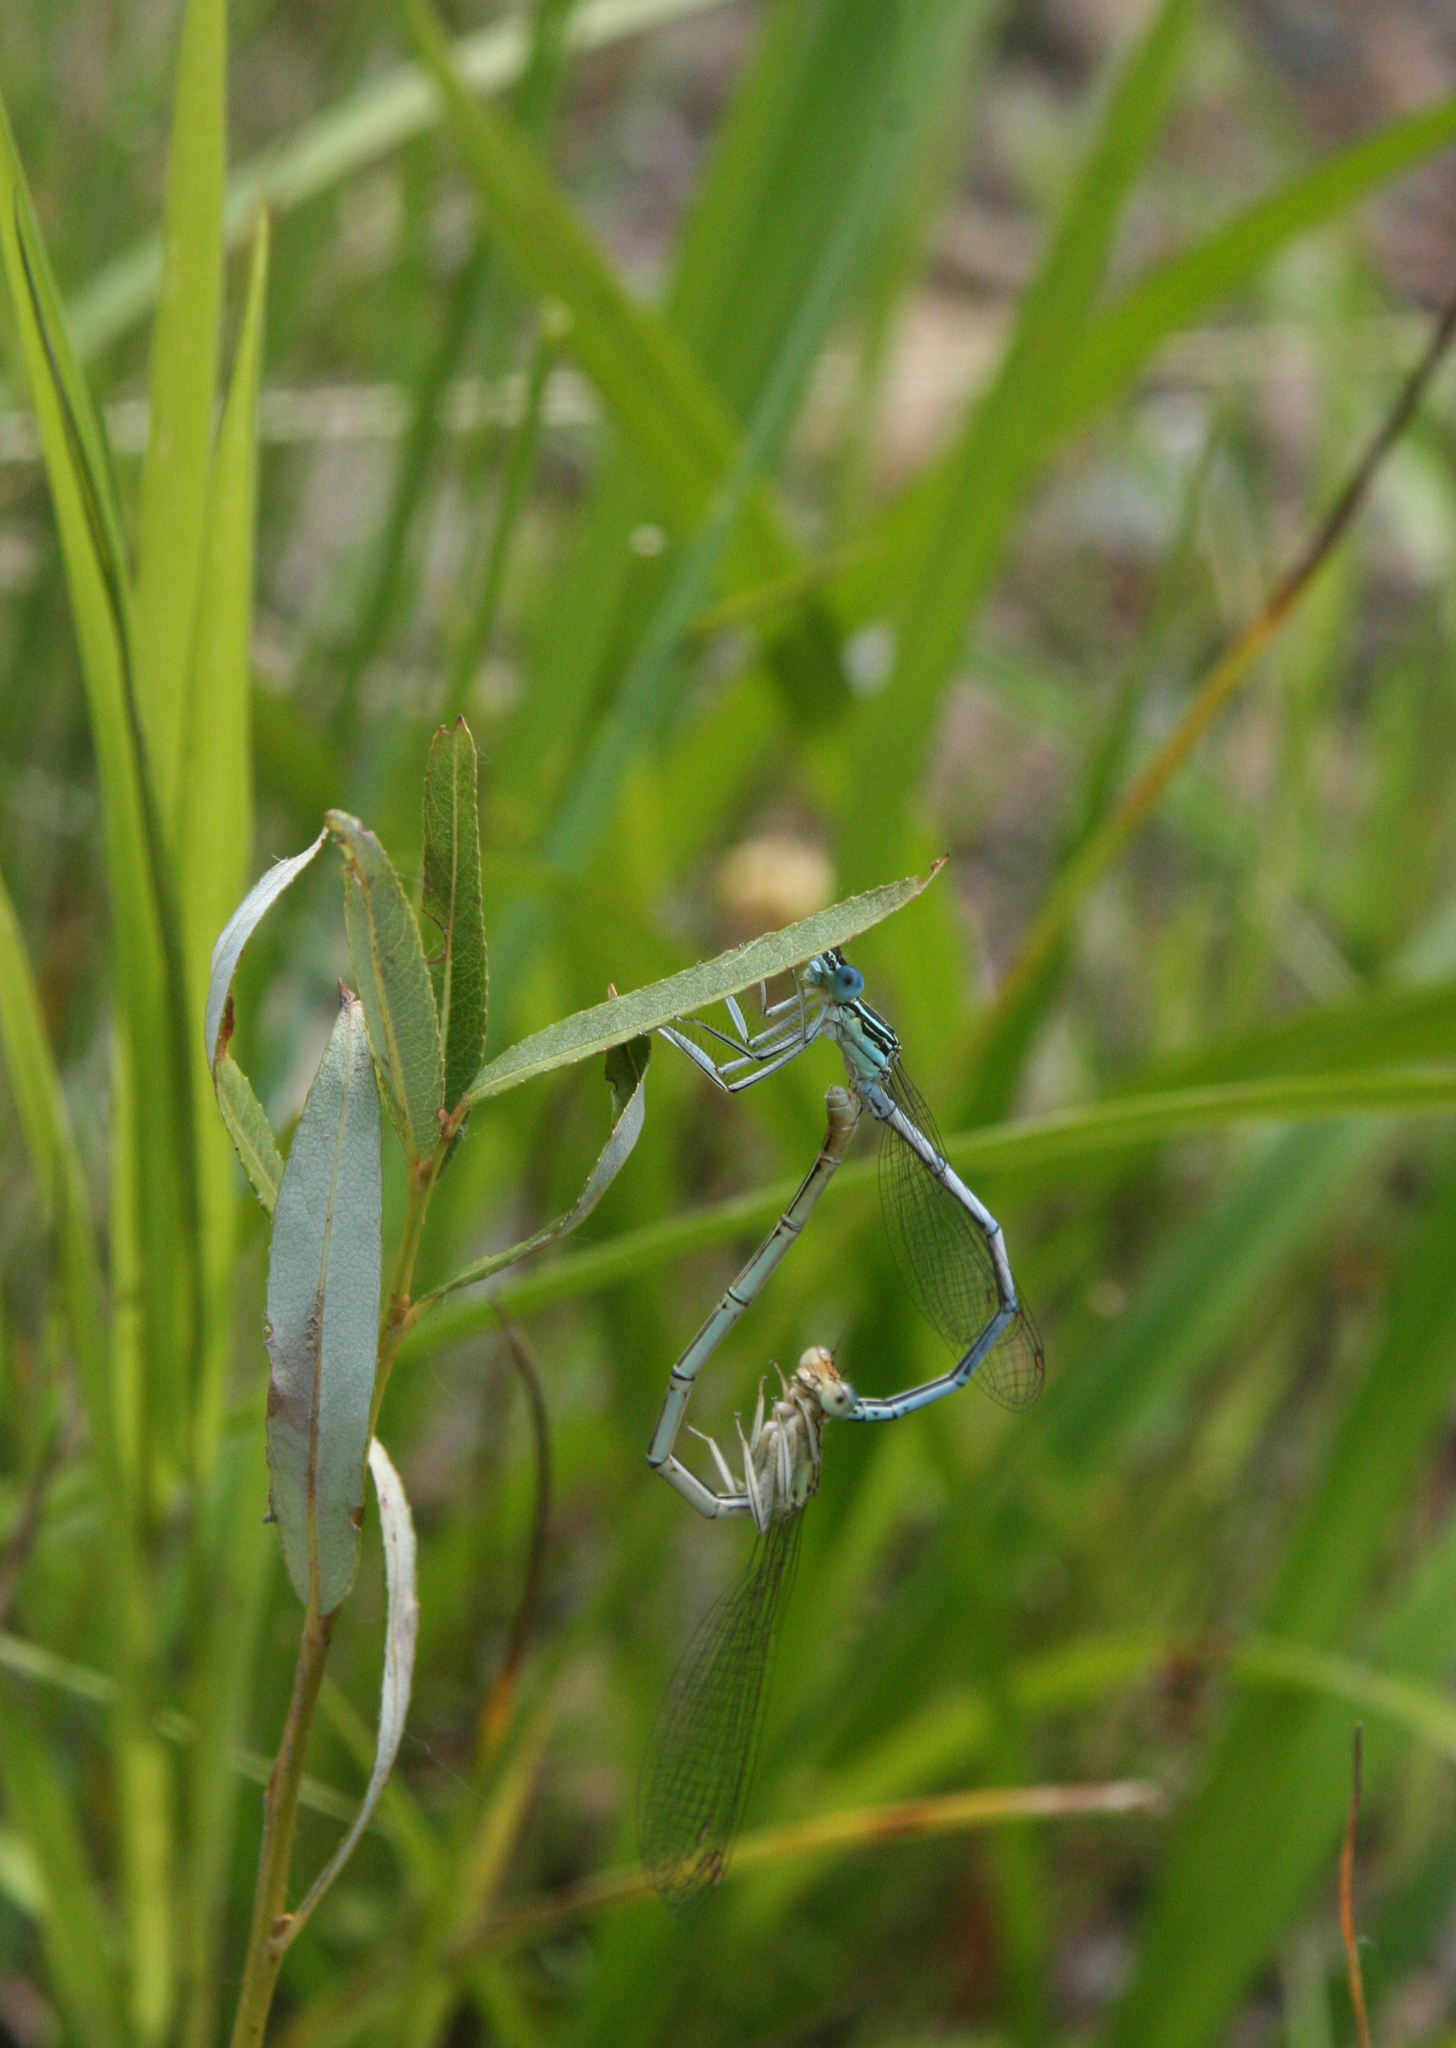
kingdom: Animalia
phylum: Arthropoda
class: Insecta
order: Odonata
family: Platycnemididae
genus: Platycnemis
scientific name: Platycnemis pennipes
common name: White-legged damselfly
